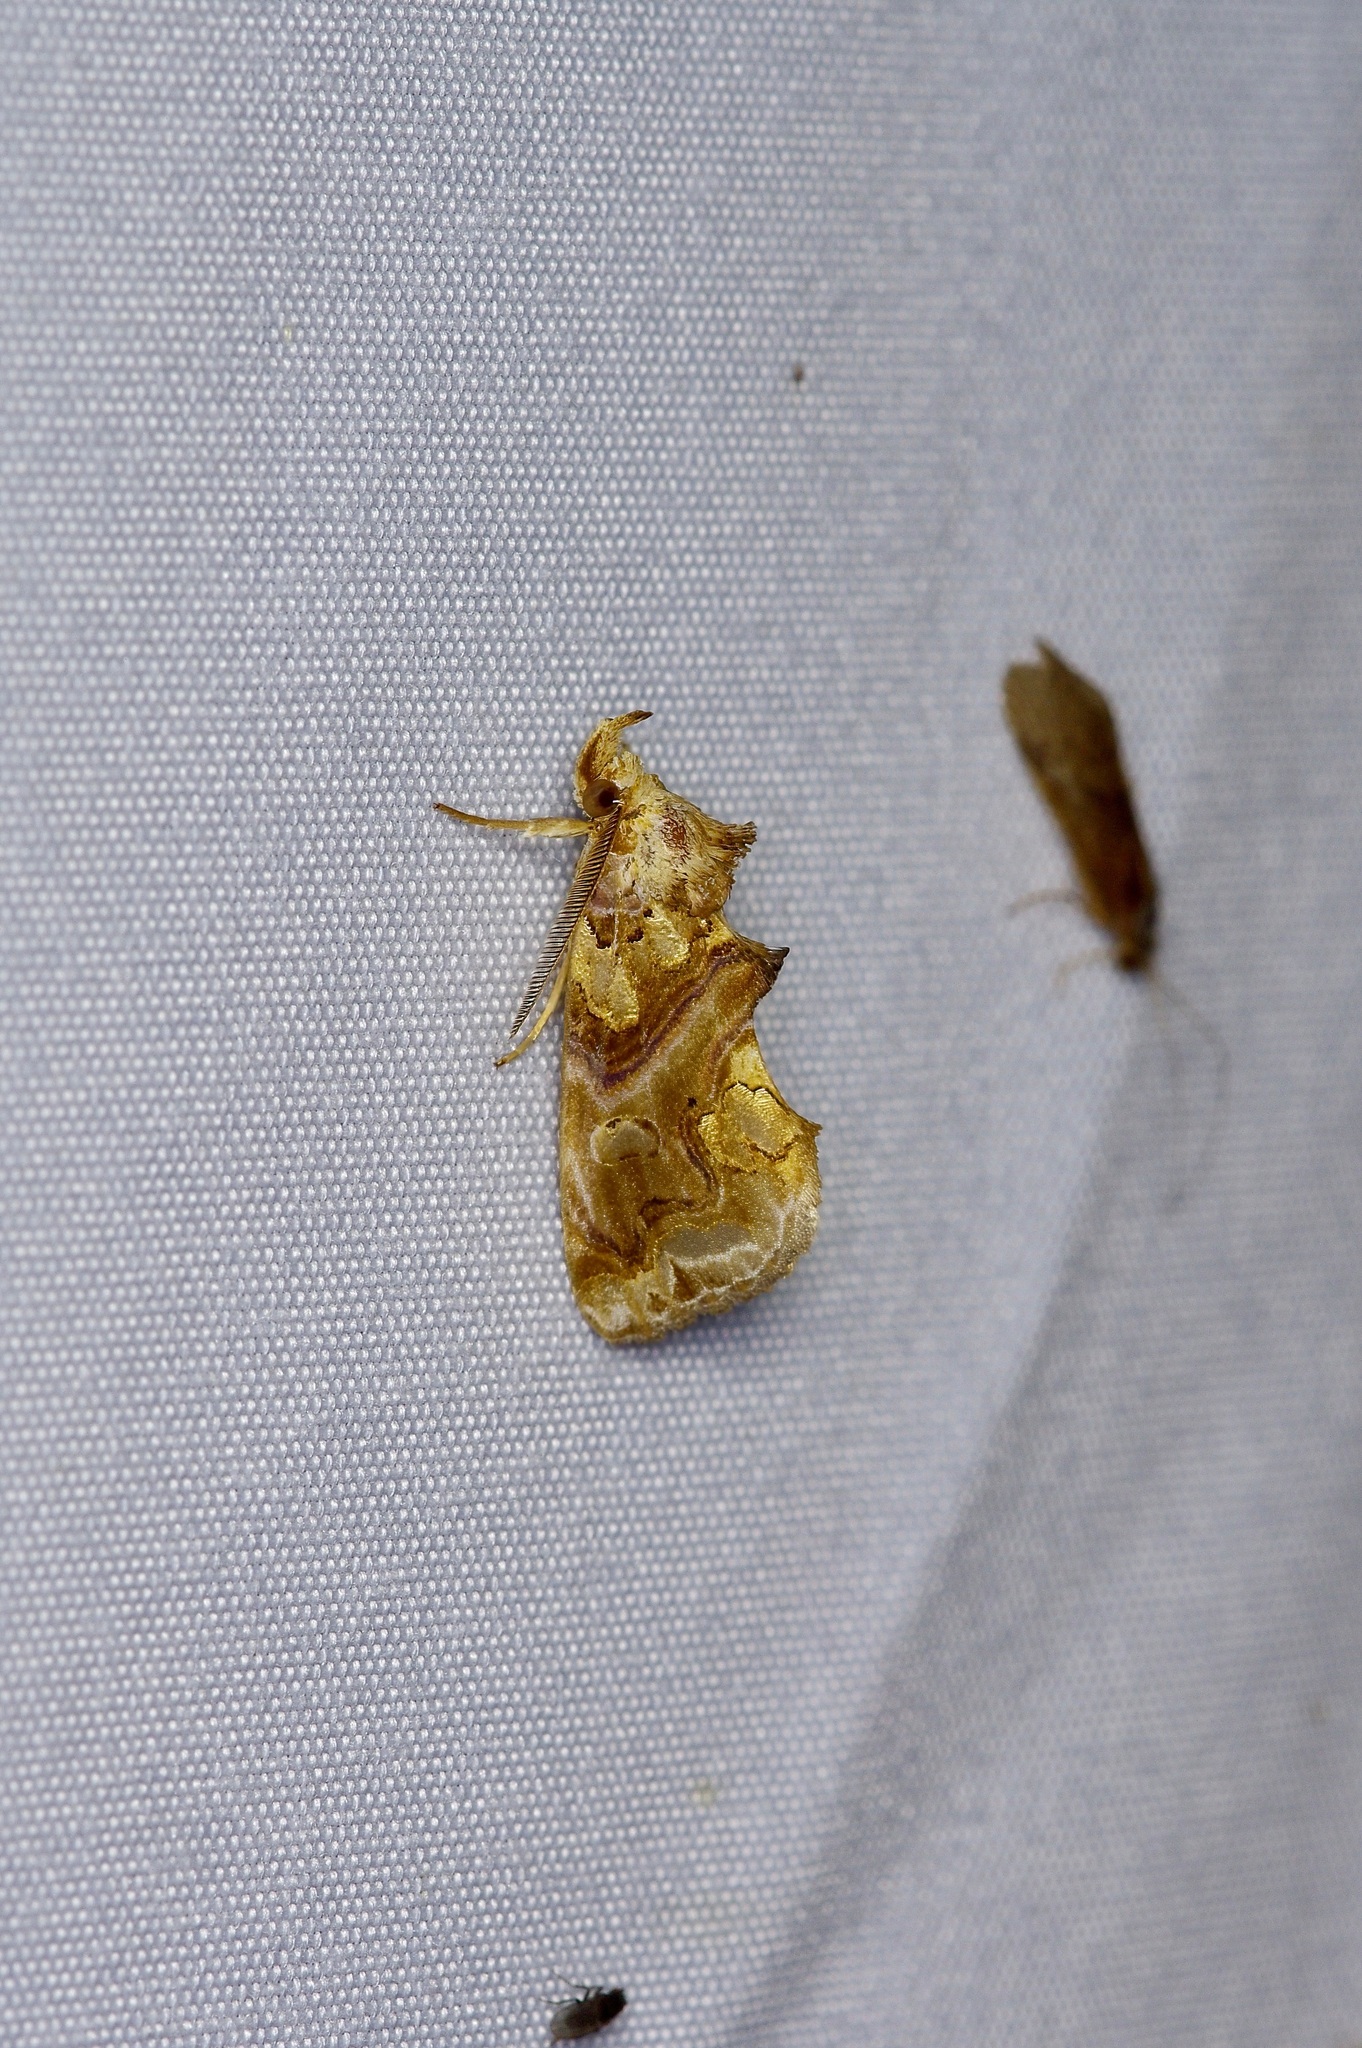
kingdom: Animalia
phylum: Arthropoda
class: Insecta
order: Lepidoptera
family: Erebidae
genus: Plusiodonta
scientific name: Plusiodonta compressipalpis
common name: Moonseed moth
